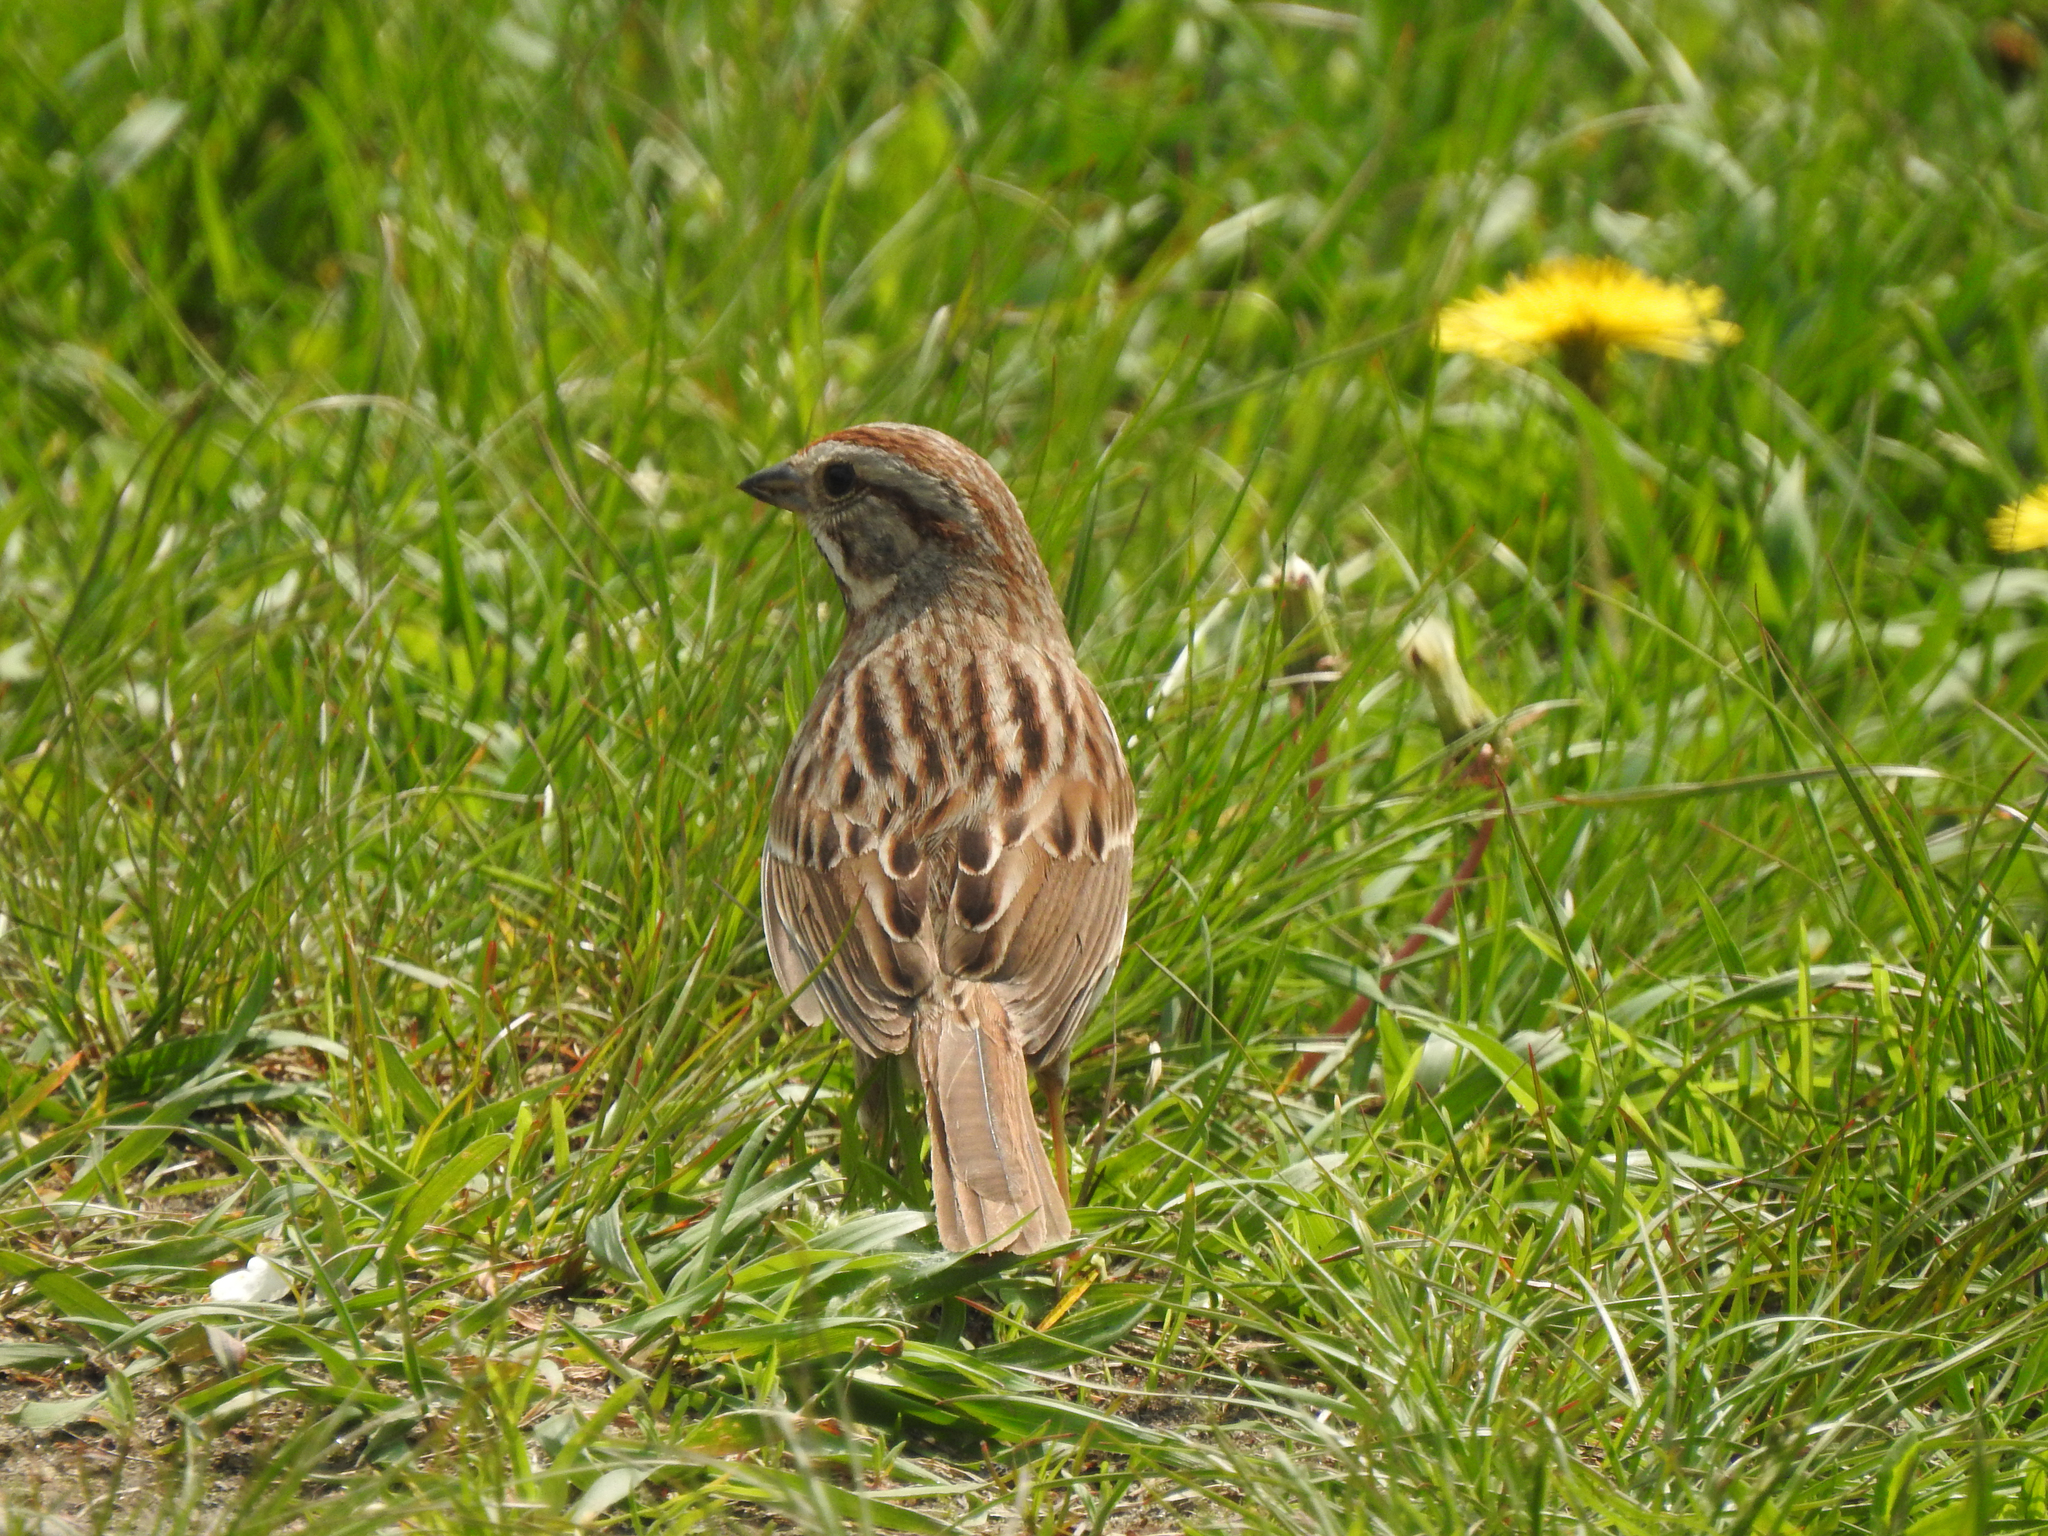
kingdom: Animalia
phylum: Chordata
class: Aves
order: Passeriformes
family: Passerellidae
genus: Melospiza
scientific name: Melospiza melodia
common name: Song sparrow
